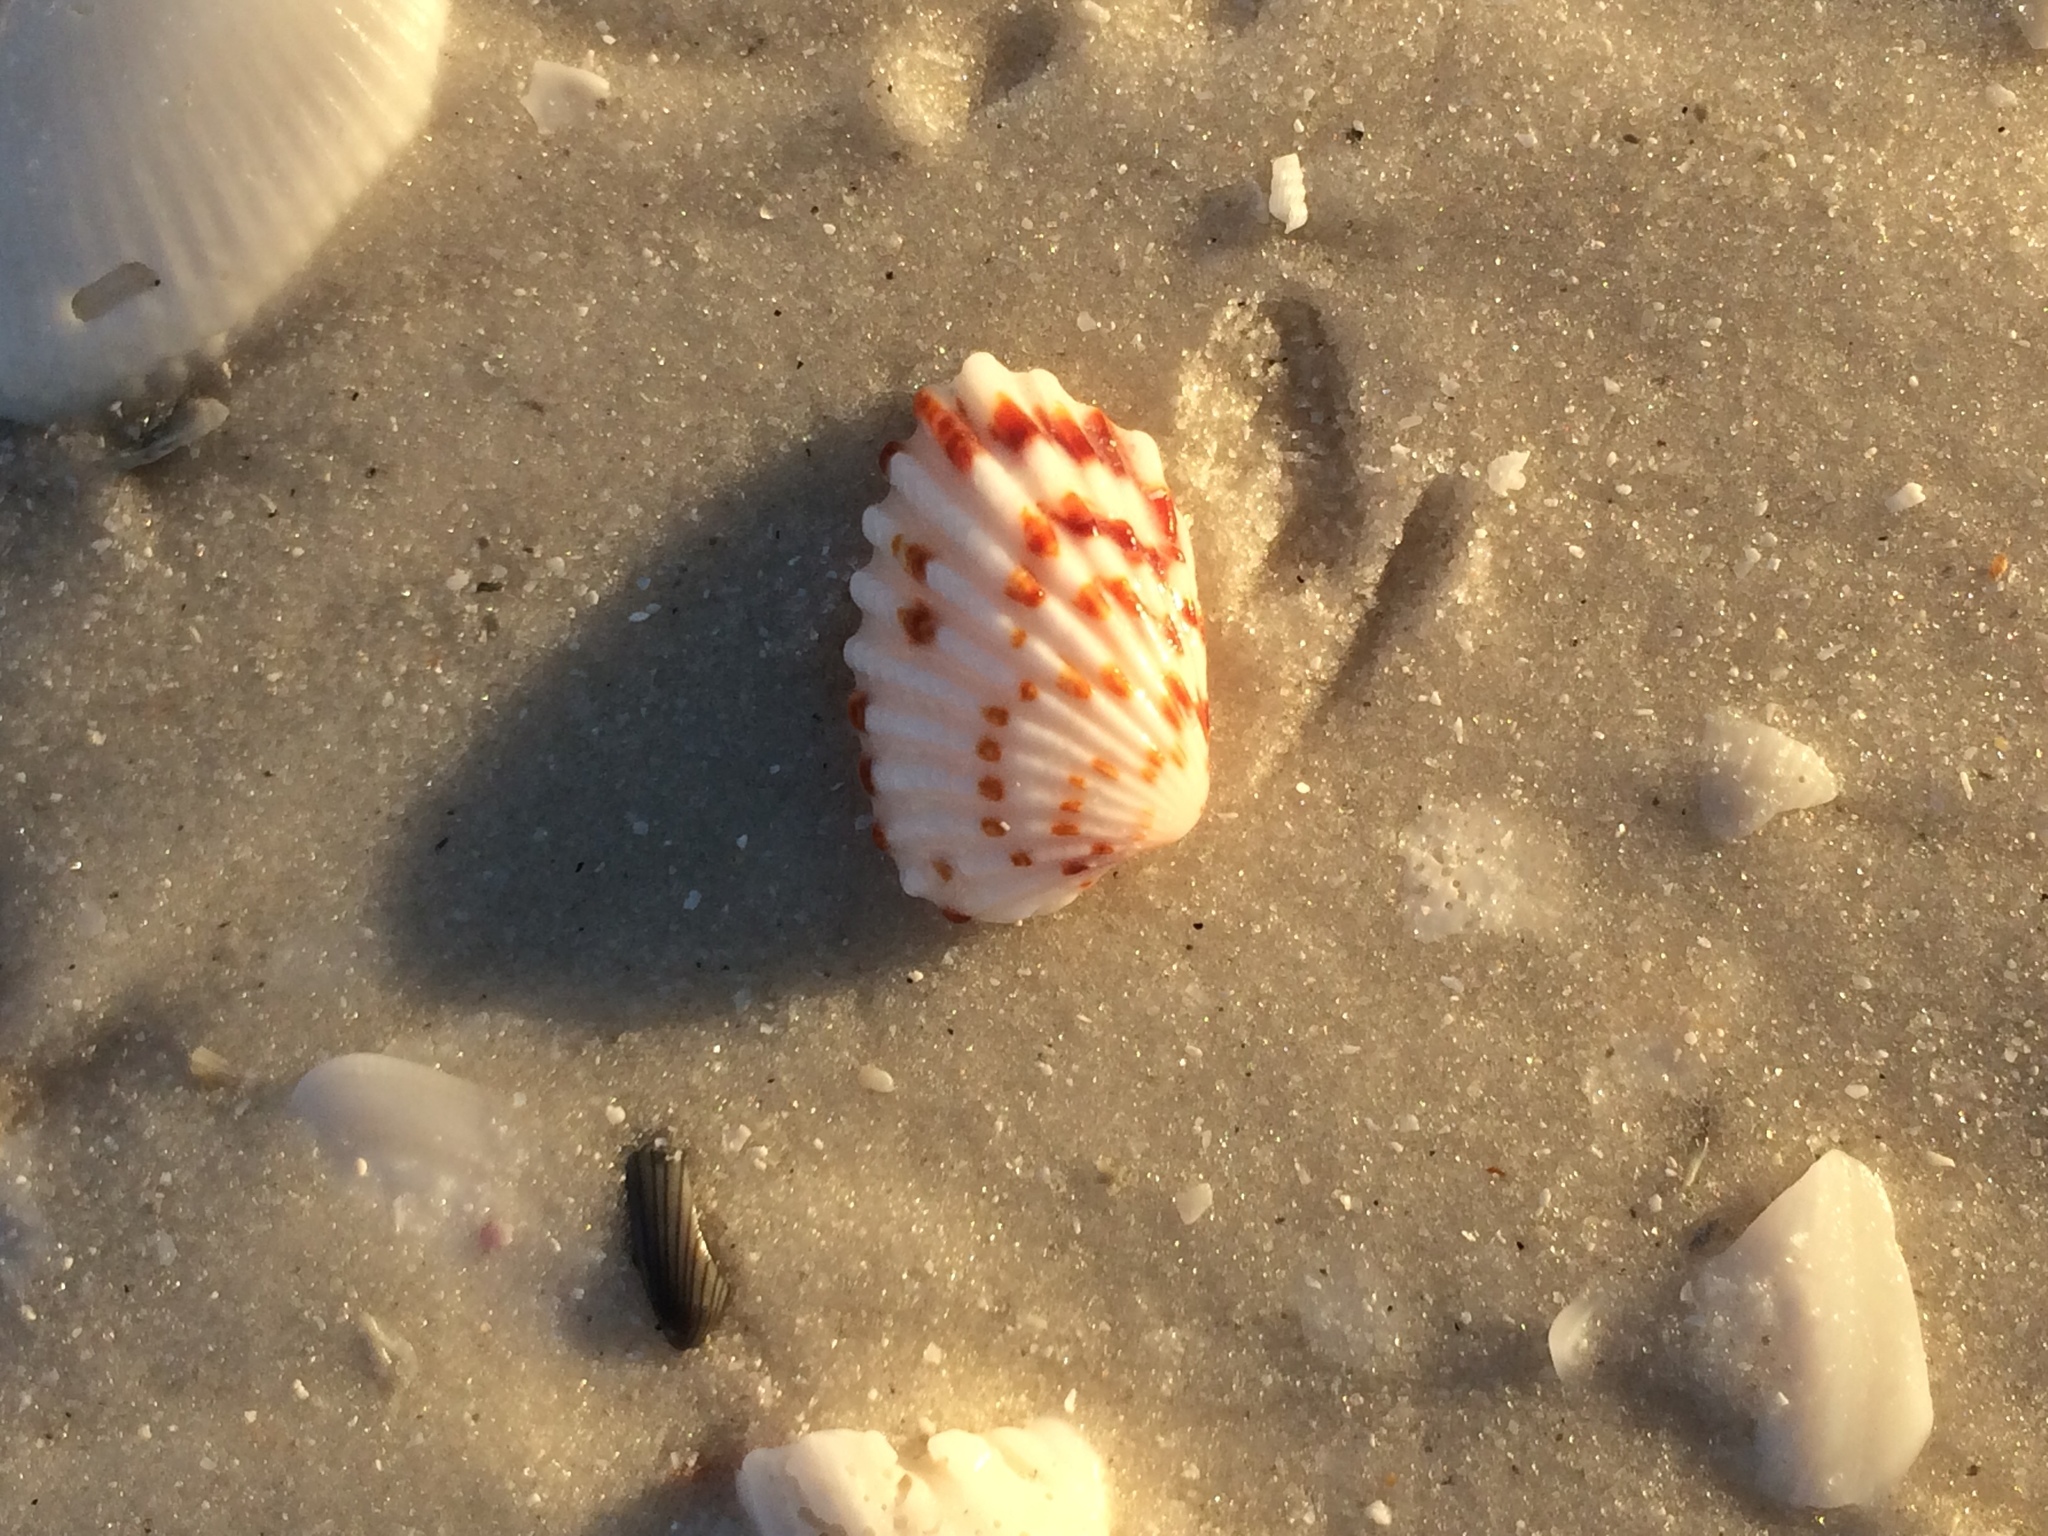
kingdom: Animalia
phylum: Mollusca
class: Bivalvia
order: Carditida
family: Carditidae
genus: Cardites
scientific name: Cardites floridanus
